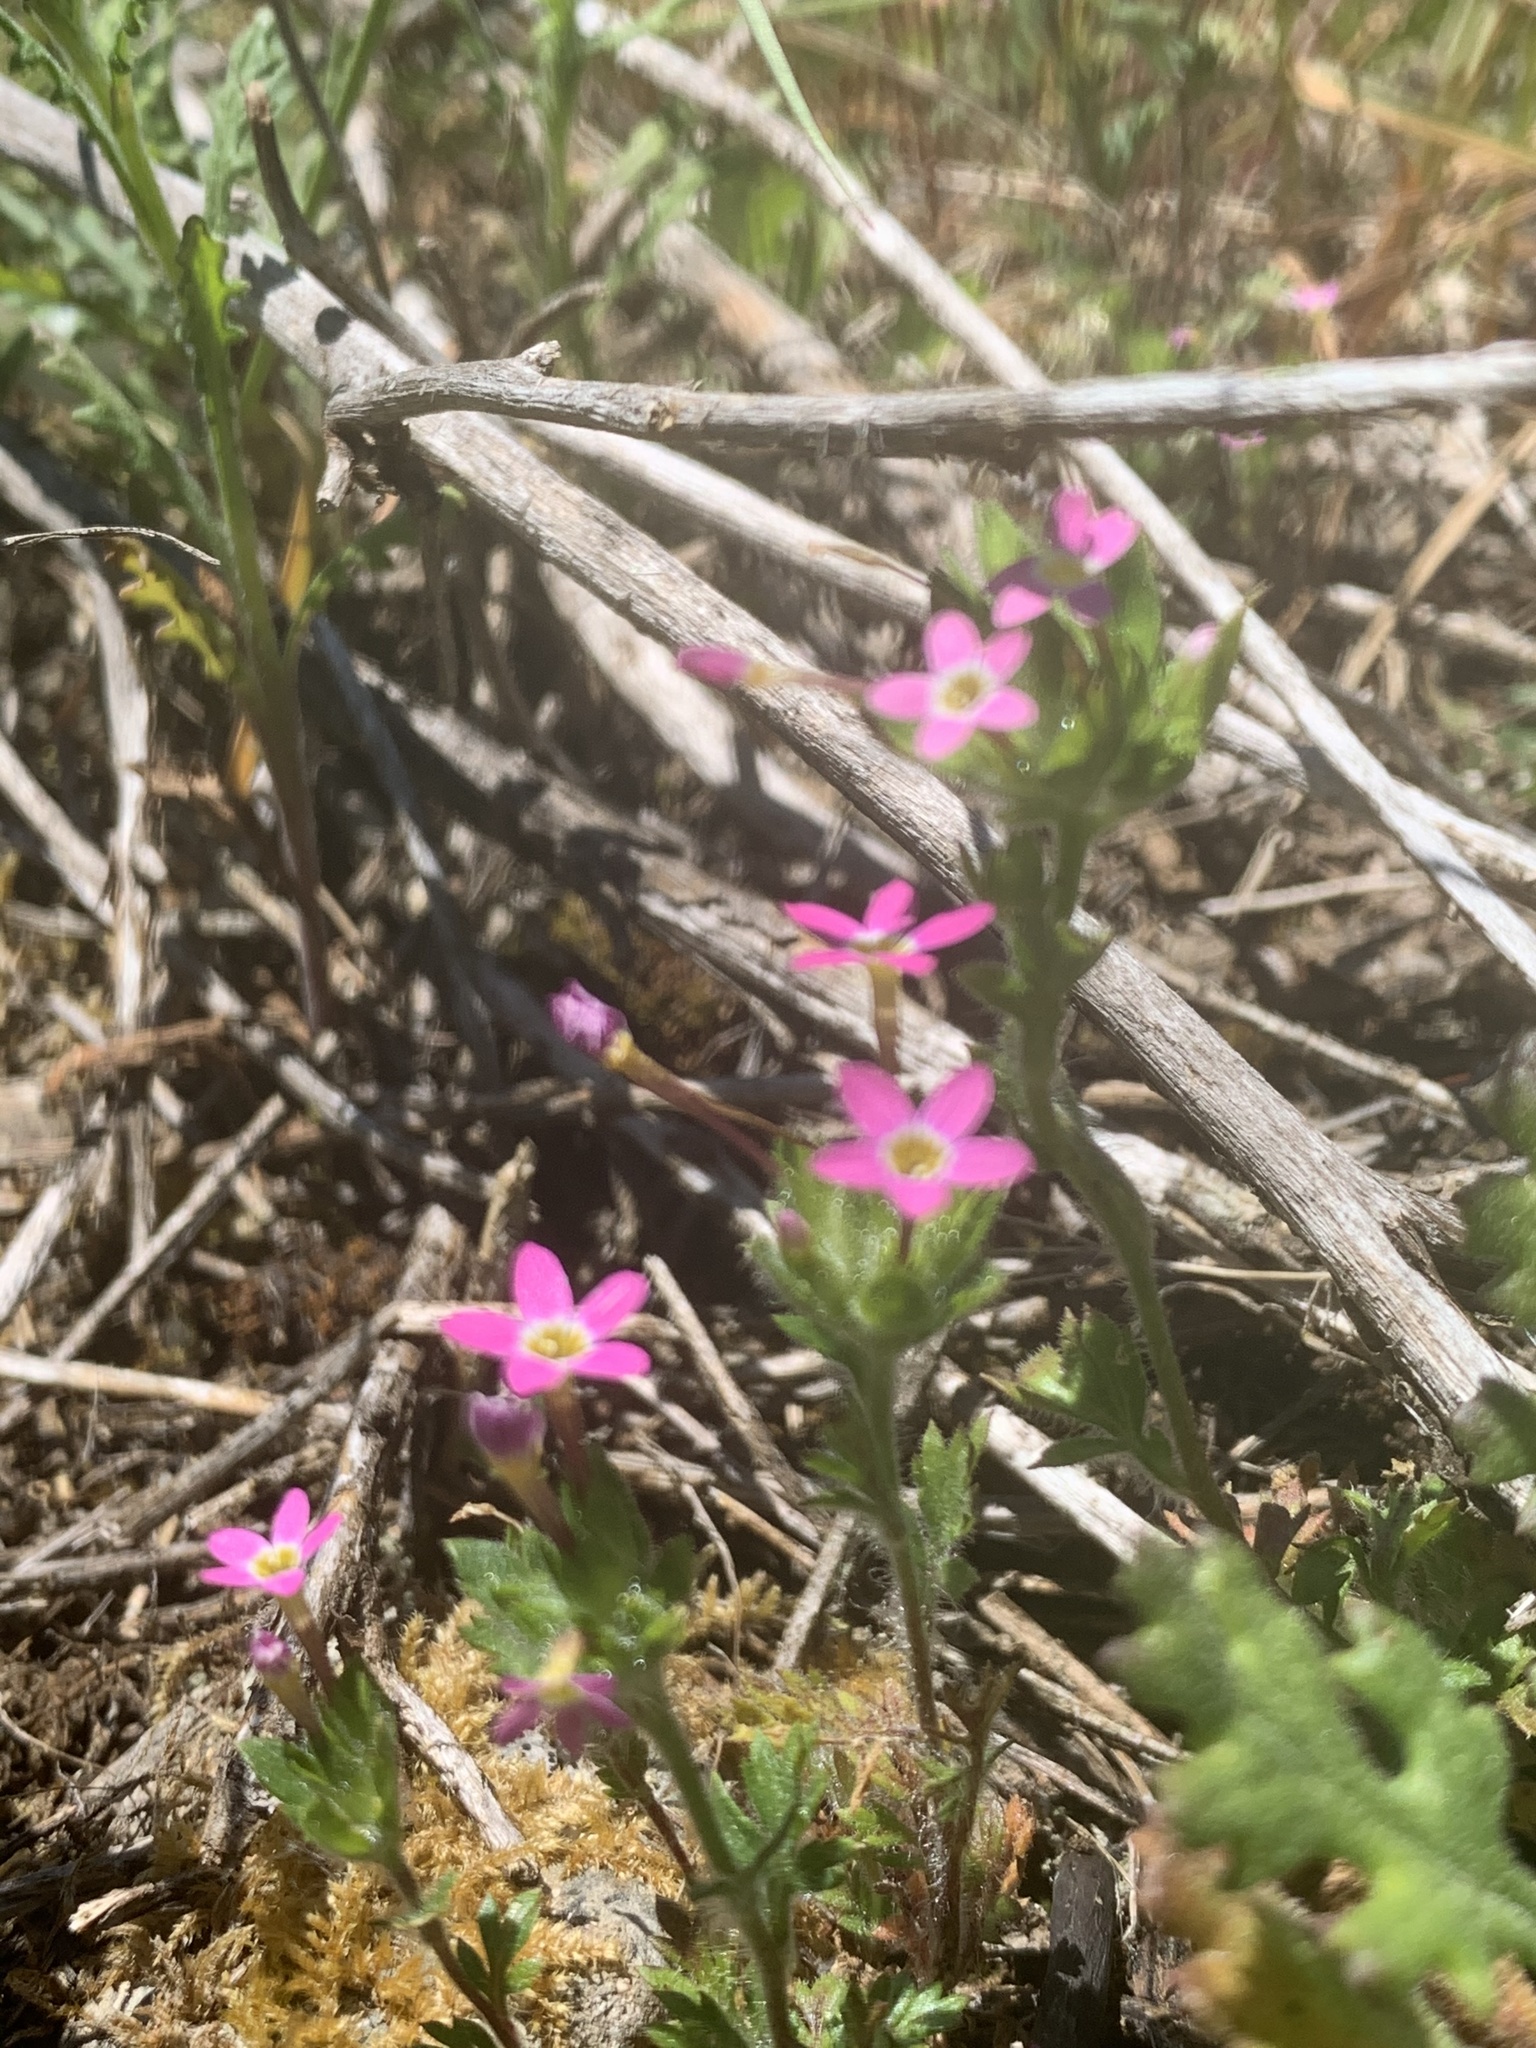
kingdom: Plantae
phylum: Tracheophyta
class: Magnoliopsida
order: Ericales
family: Polemoniaceae
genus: Collomia
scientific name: Collomia heterophylla
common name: Variable-leaved collomia
